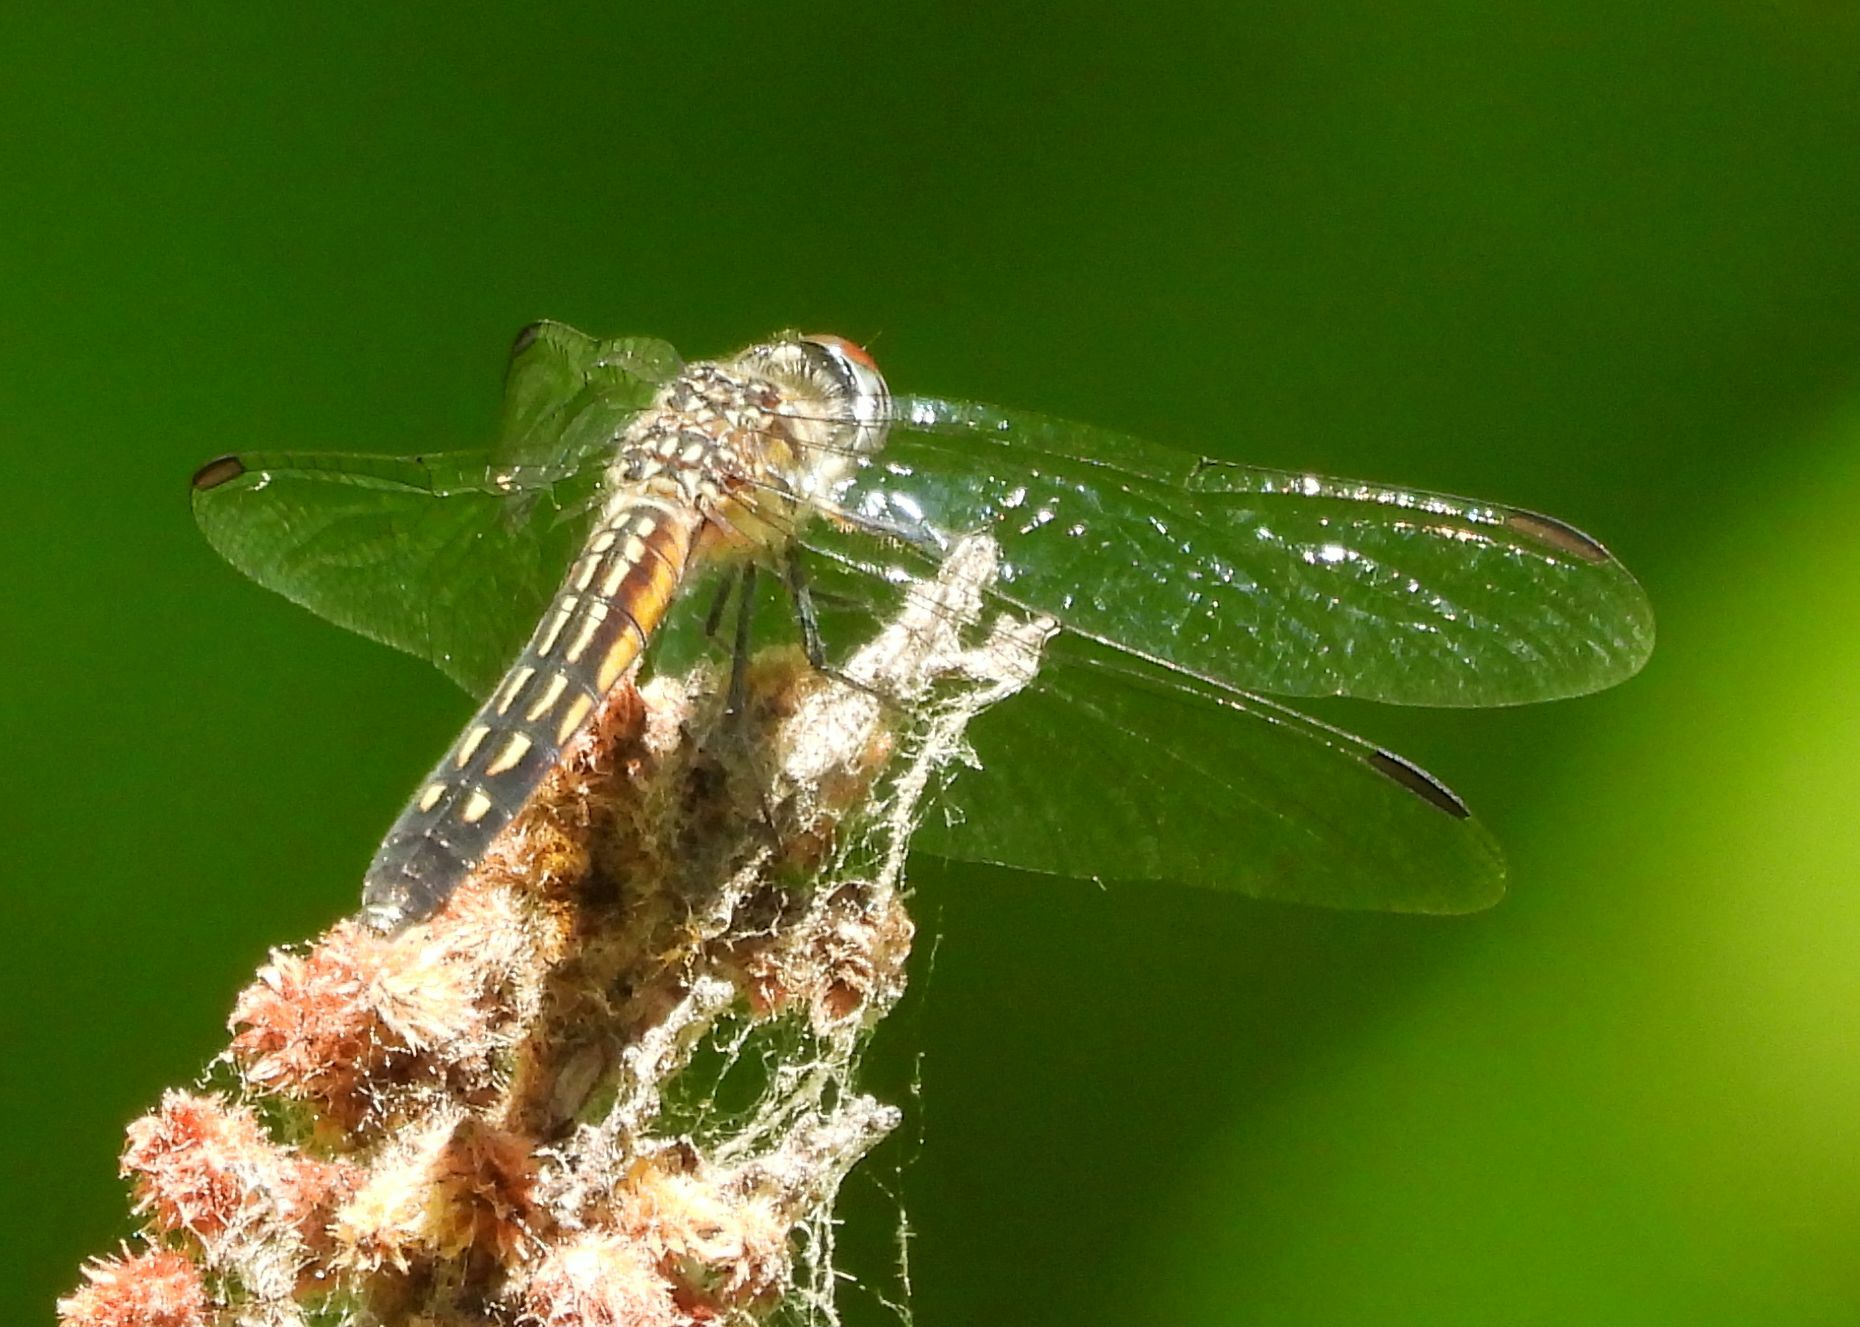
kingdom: Animalia
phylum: Arthropoda
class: Insecta
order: Odonata
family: Libellulidae
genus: Pachydiplax
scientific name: Pachydiplax longipennis
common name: Blue dasher
